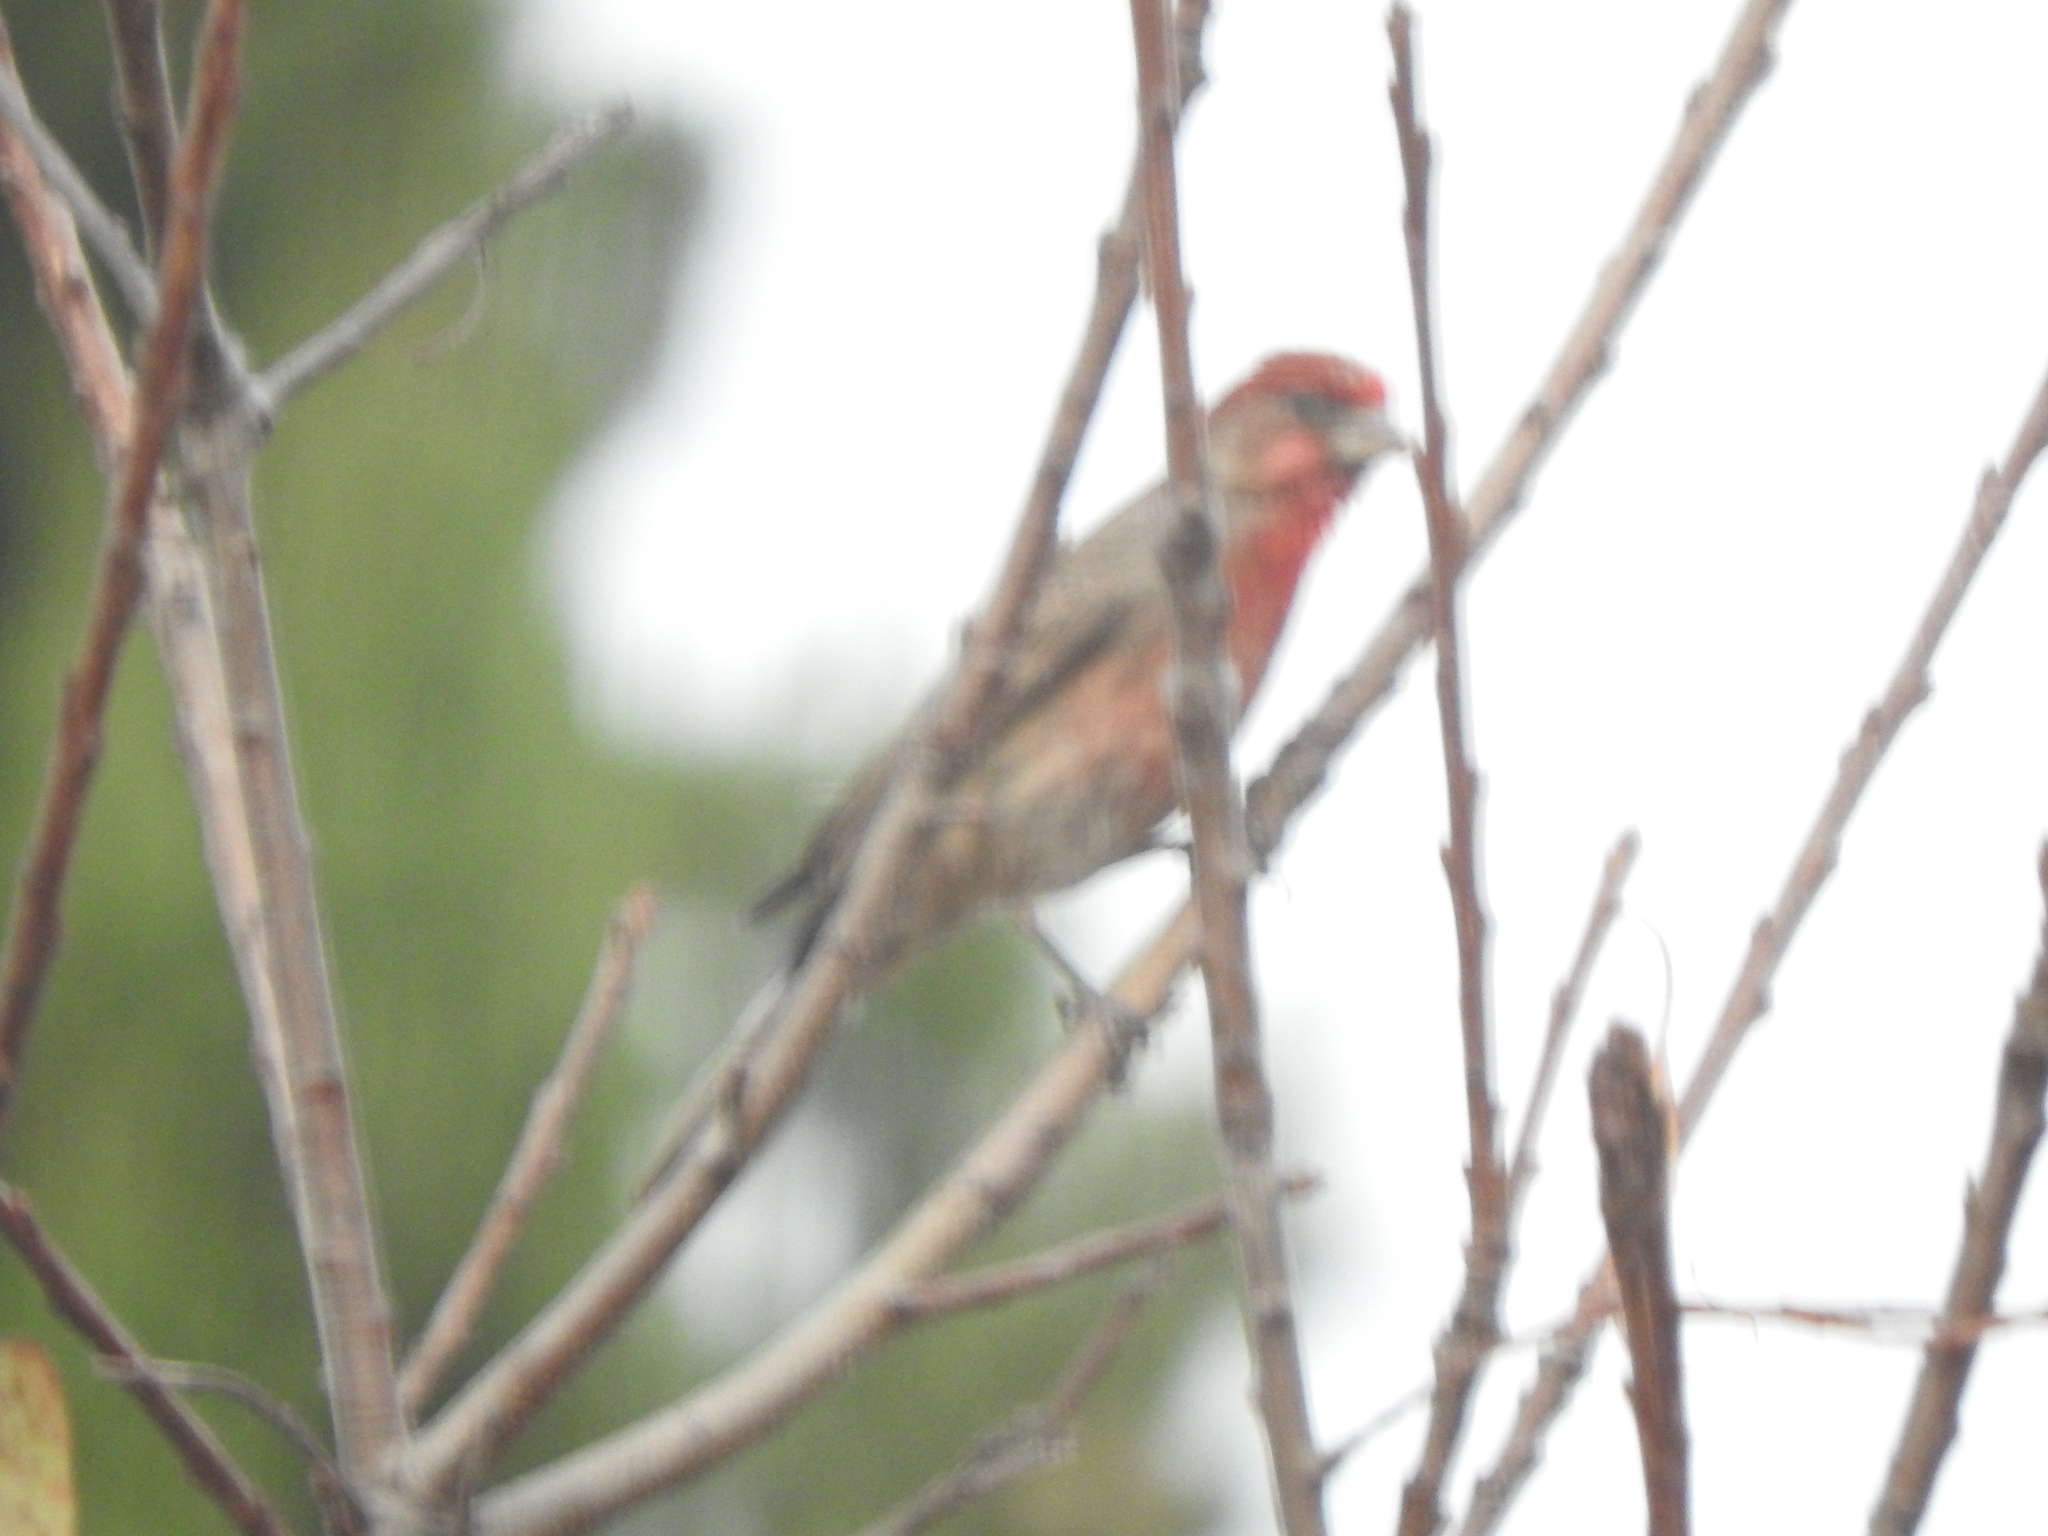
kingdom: Animalia
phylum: Chordata
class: Aves
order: Passeriformes
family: Fringillidae
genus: Haemorhous
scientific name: Haemorhous mexicanus
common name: House finch
